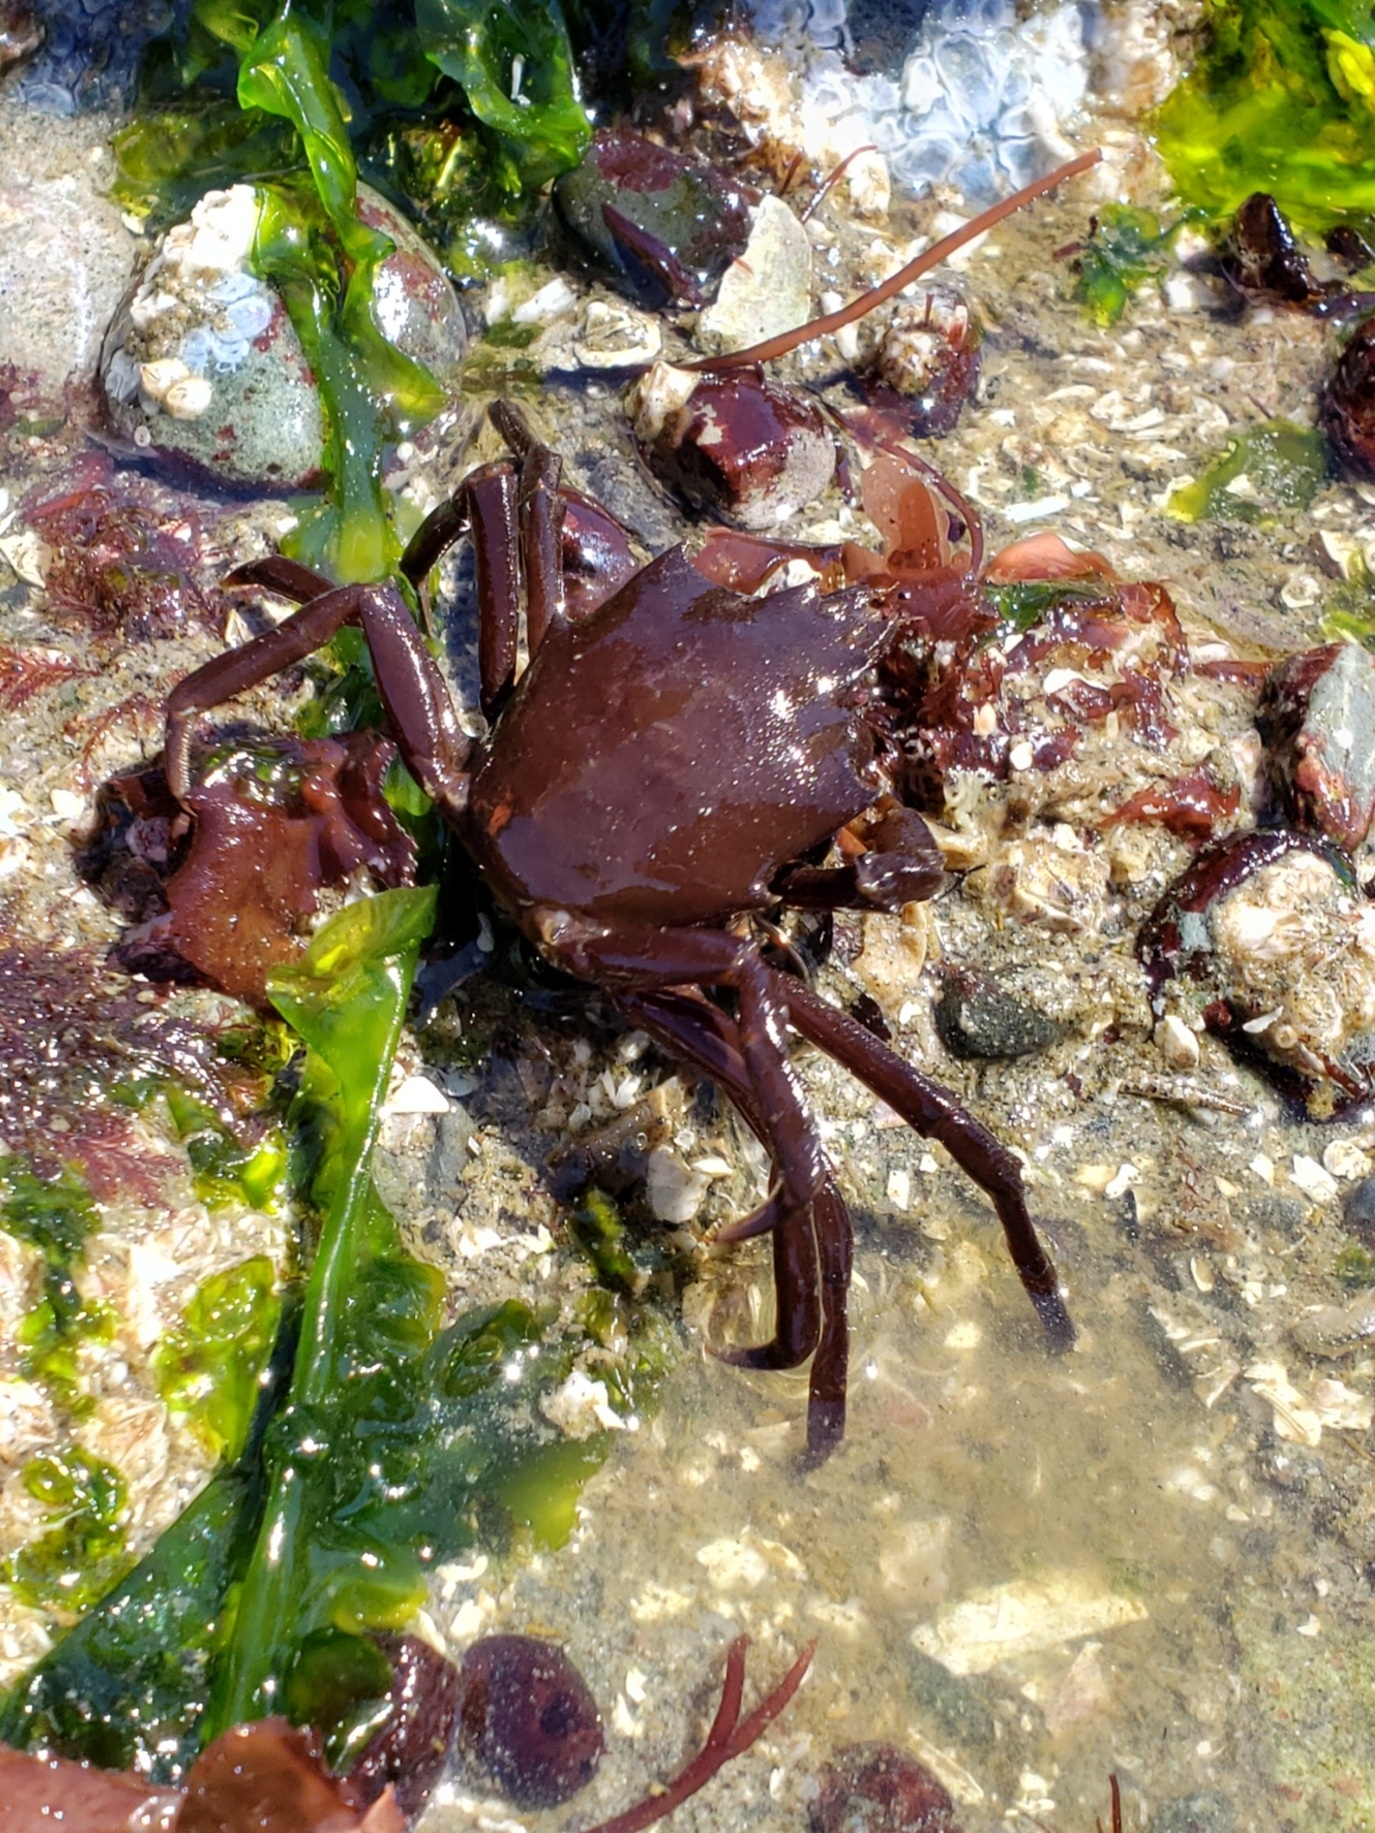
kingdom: Animalia
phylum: Arthropoda
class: Malacostraca
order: Decapoda
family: Epialtidae
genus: Pugettia
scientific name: Pugettia producta
